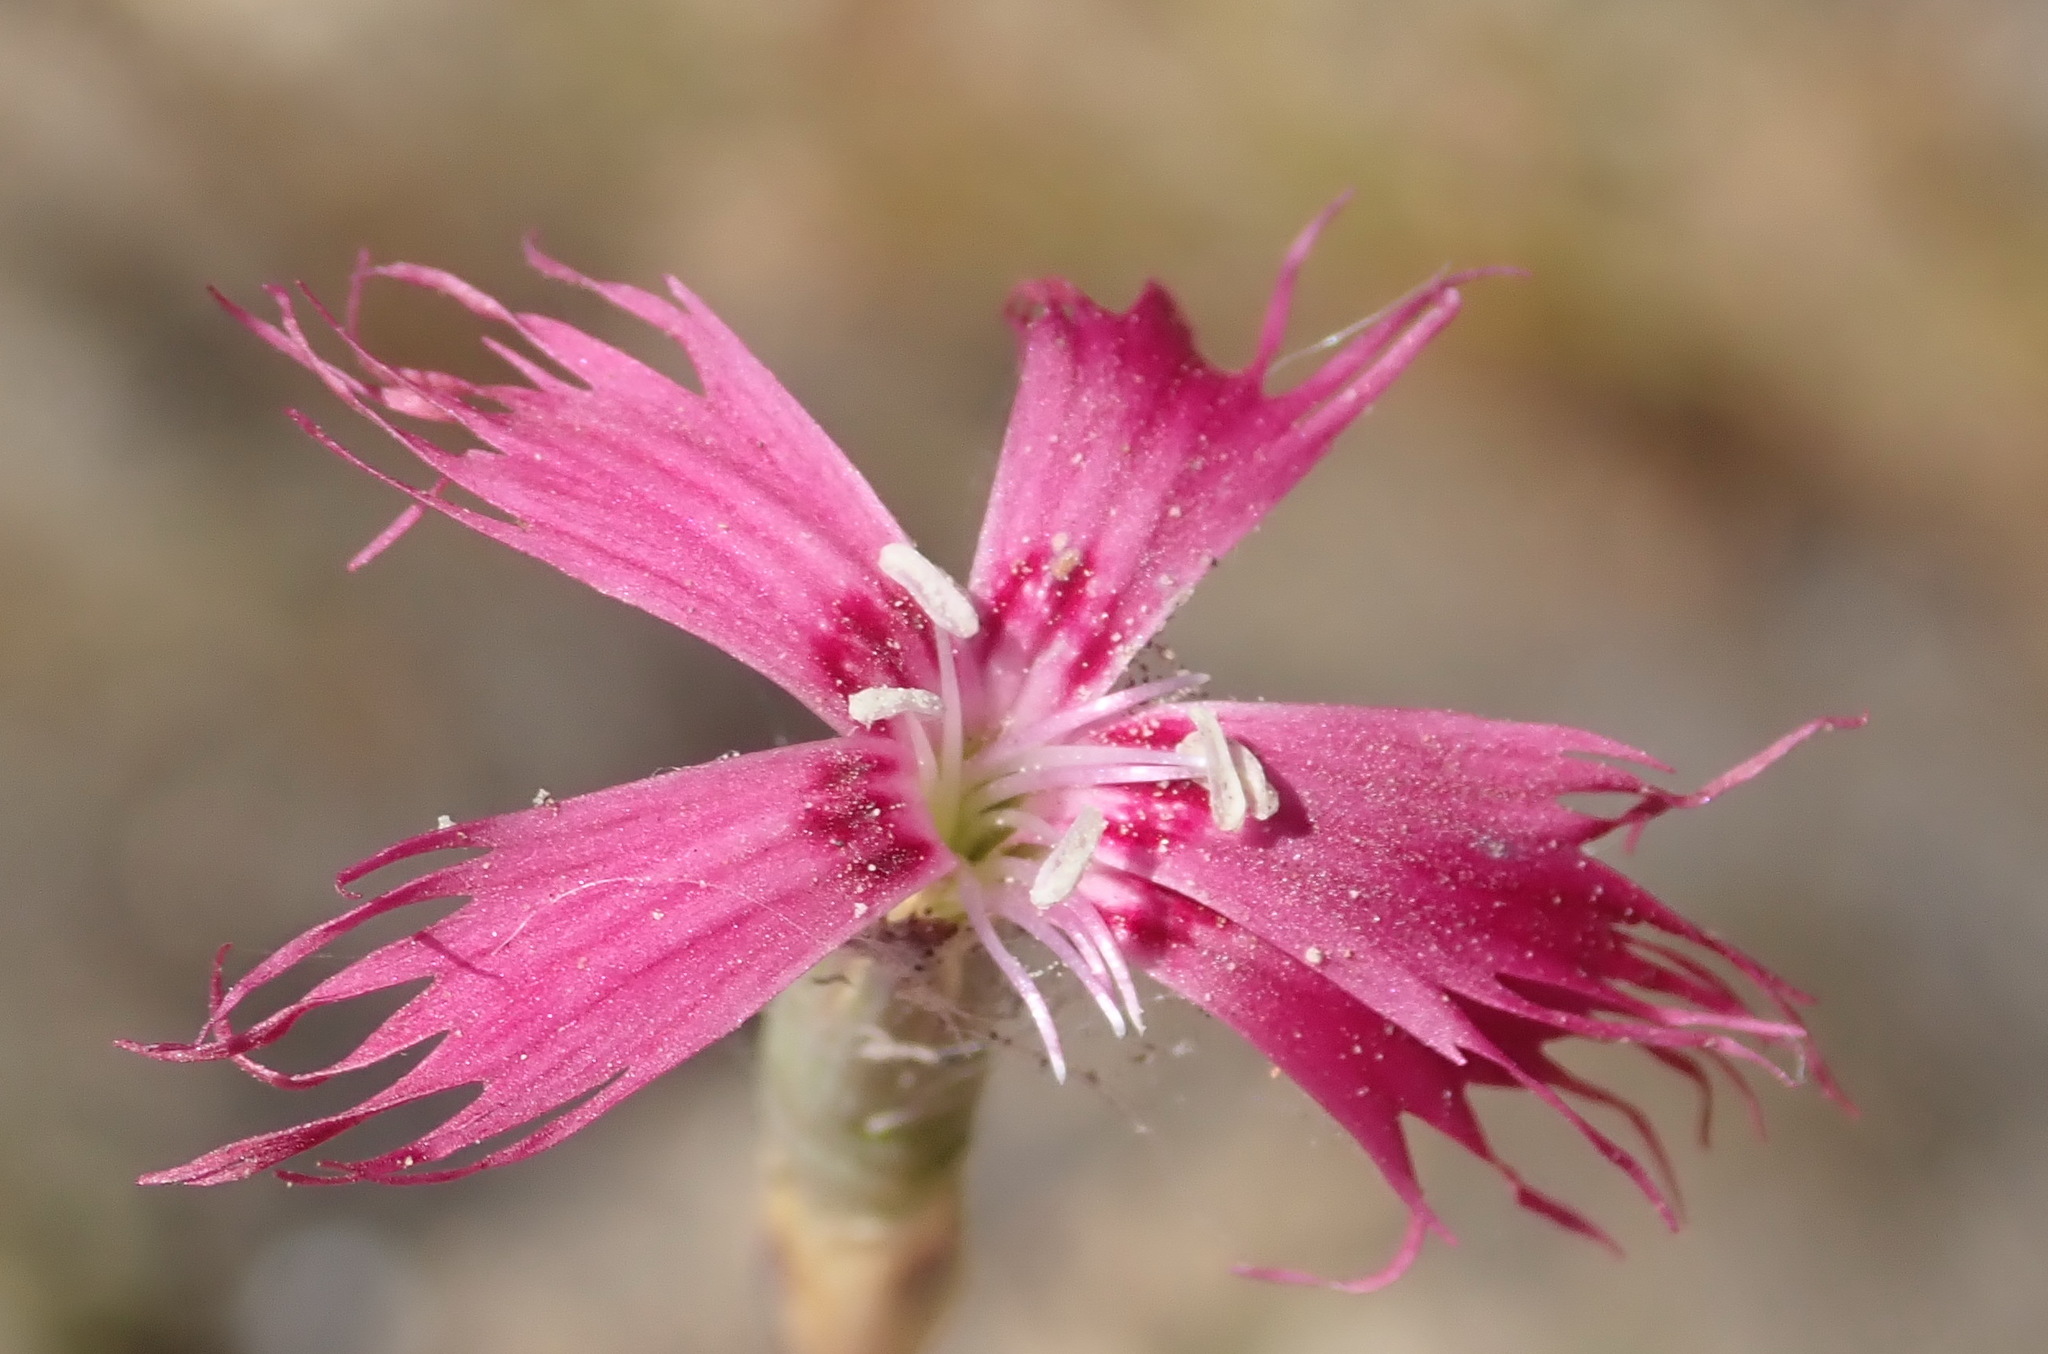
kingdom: Plantae
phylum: Tracheophyta
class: Magnoliopsida
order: Caryophyllales
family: Caryophyllaceae
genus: Dianthus
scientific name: Dianthus bolusii
